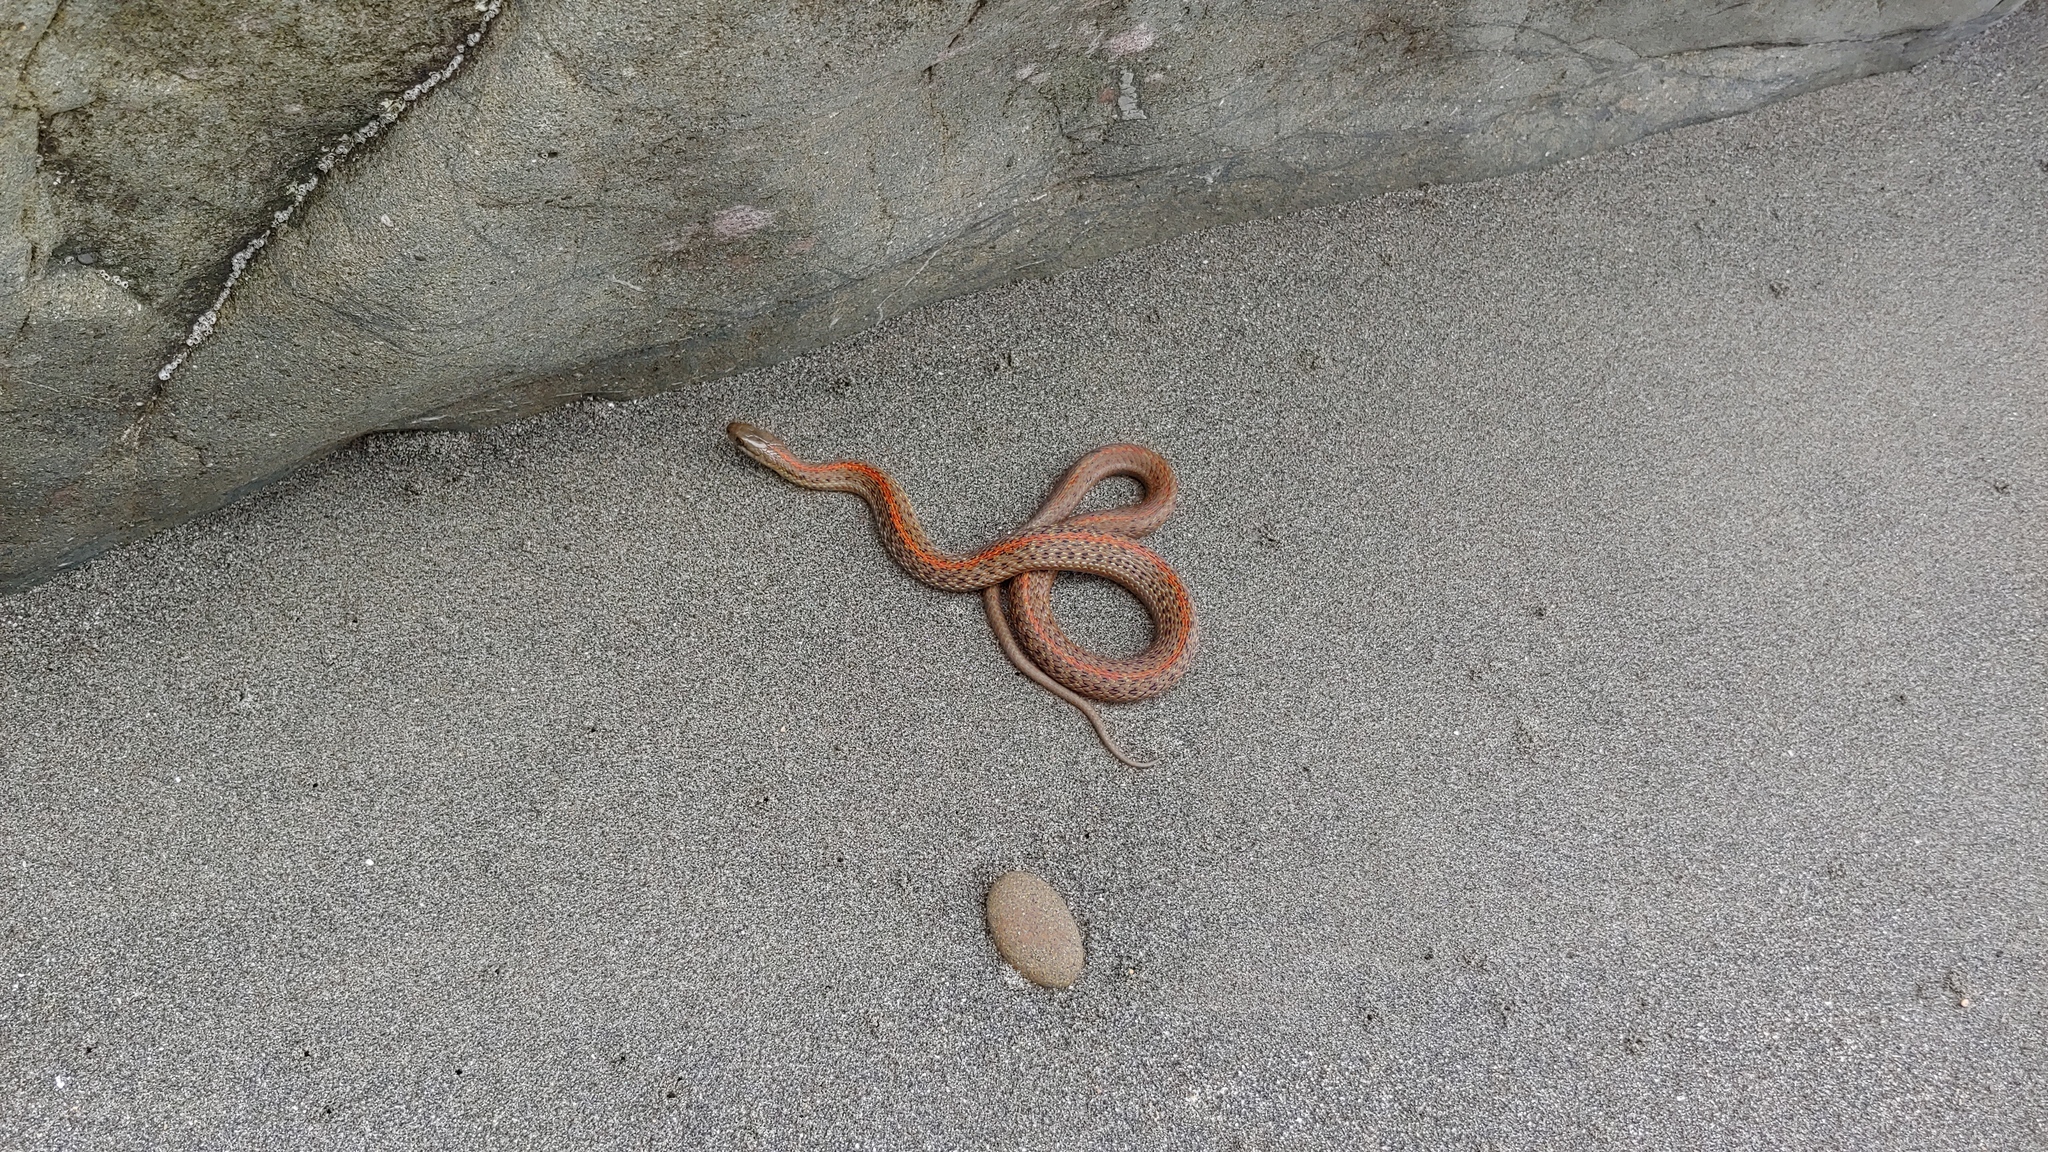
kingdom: Animalia
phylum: Chordata
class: Squamata
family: Colubridae
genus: Thamnophis
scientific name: Thamnophis ordinoides
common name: Northwestern garter snake
